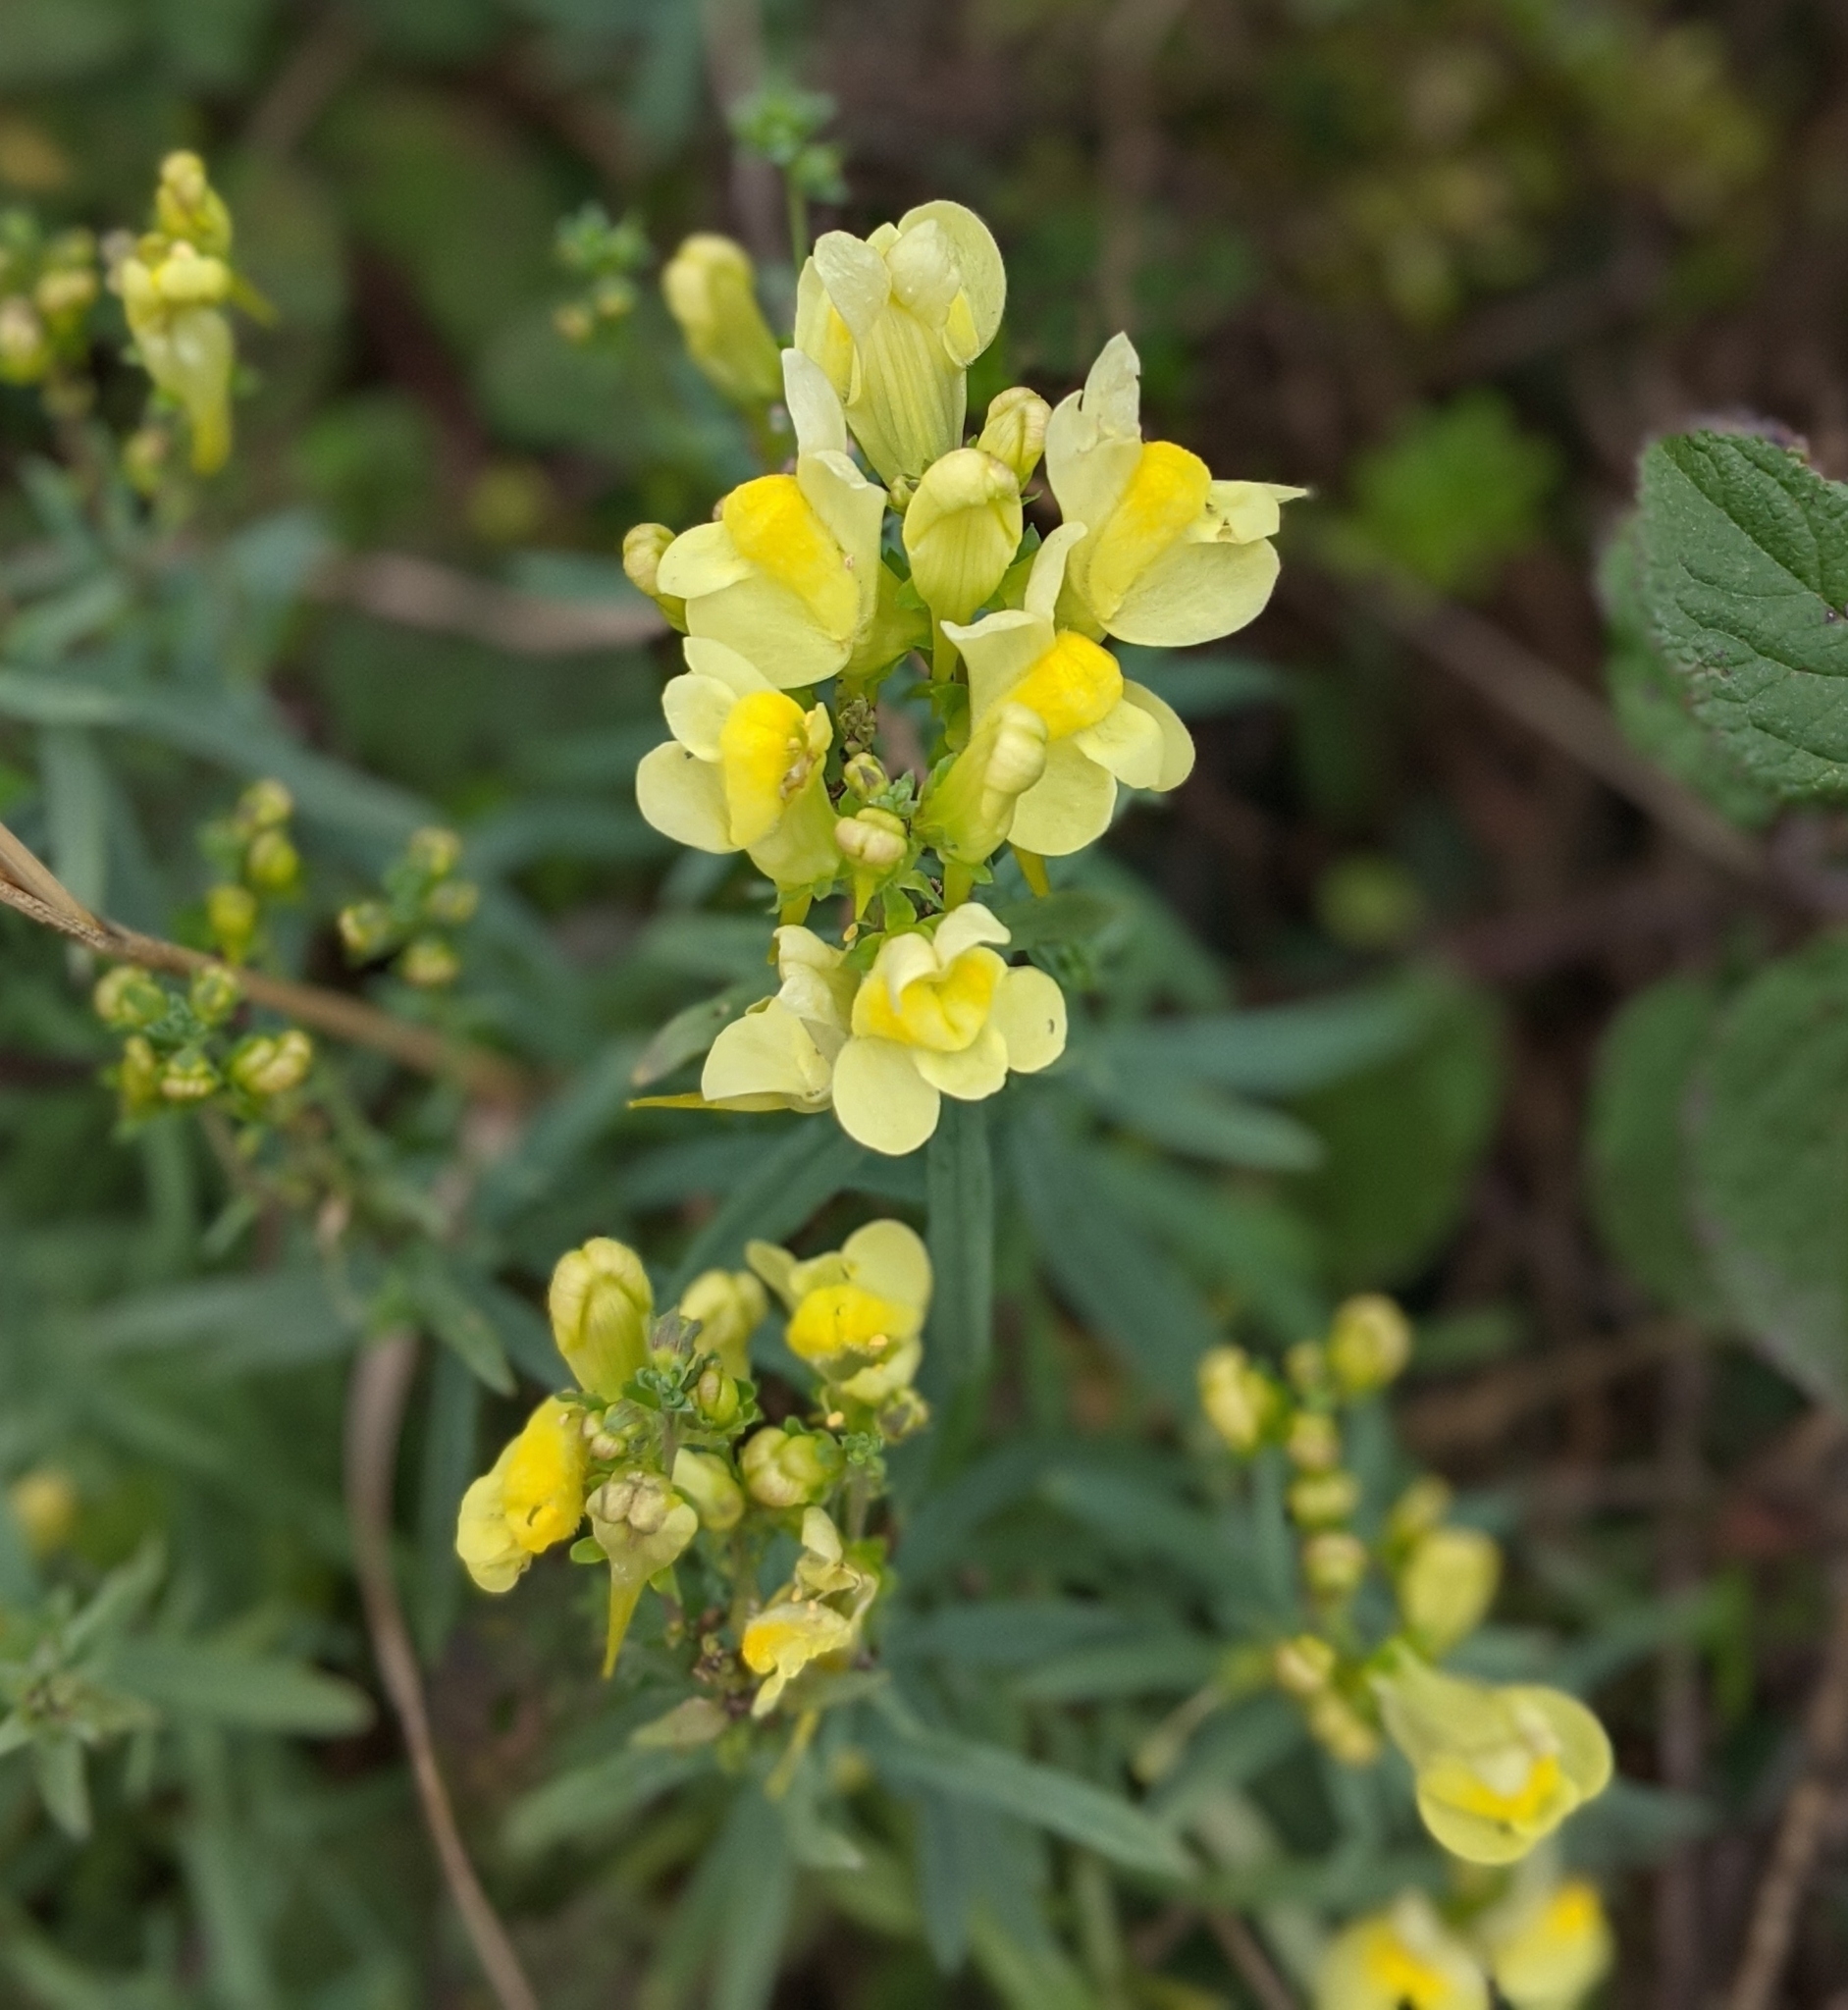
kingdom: Plantae
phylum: Tracheophyta
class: Magnoliopsida
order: Lamiales
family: Plantaginaceae
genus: Linaria
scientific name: Linaria vulgaris
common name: Butter and eggs
